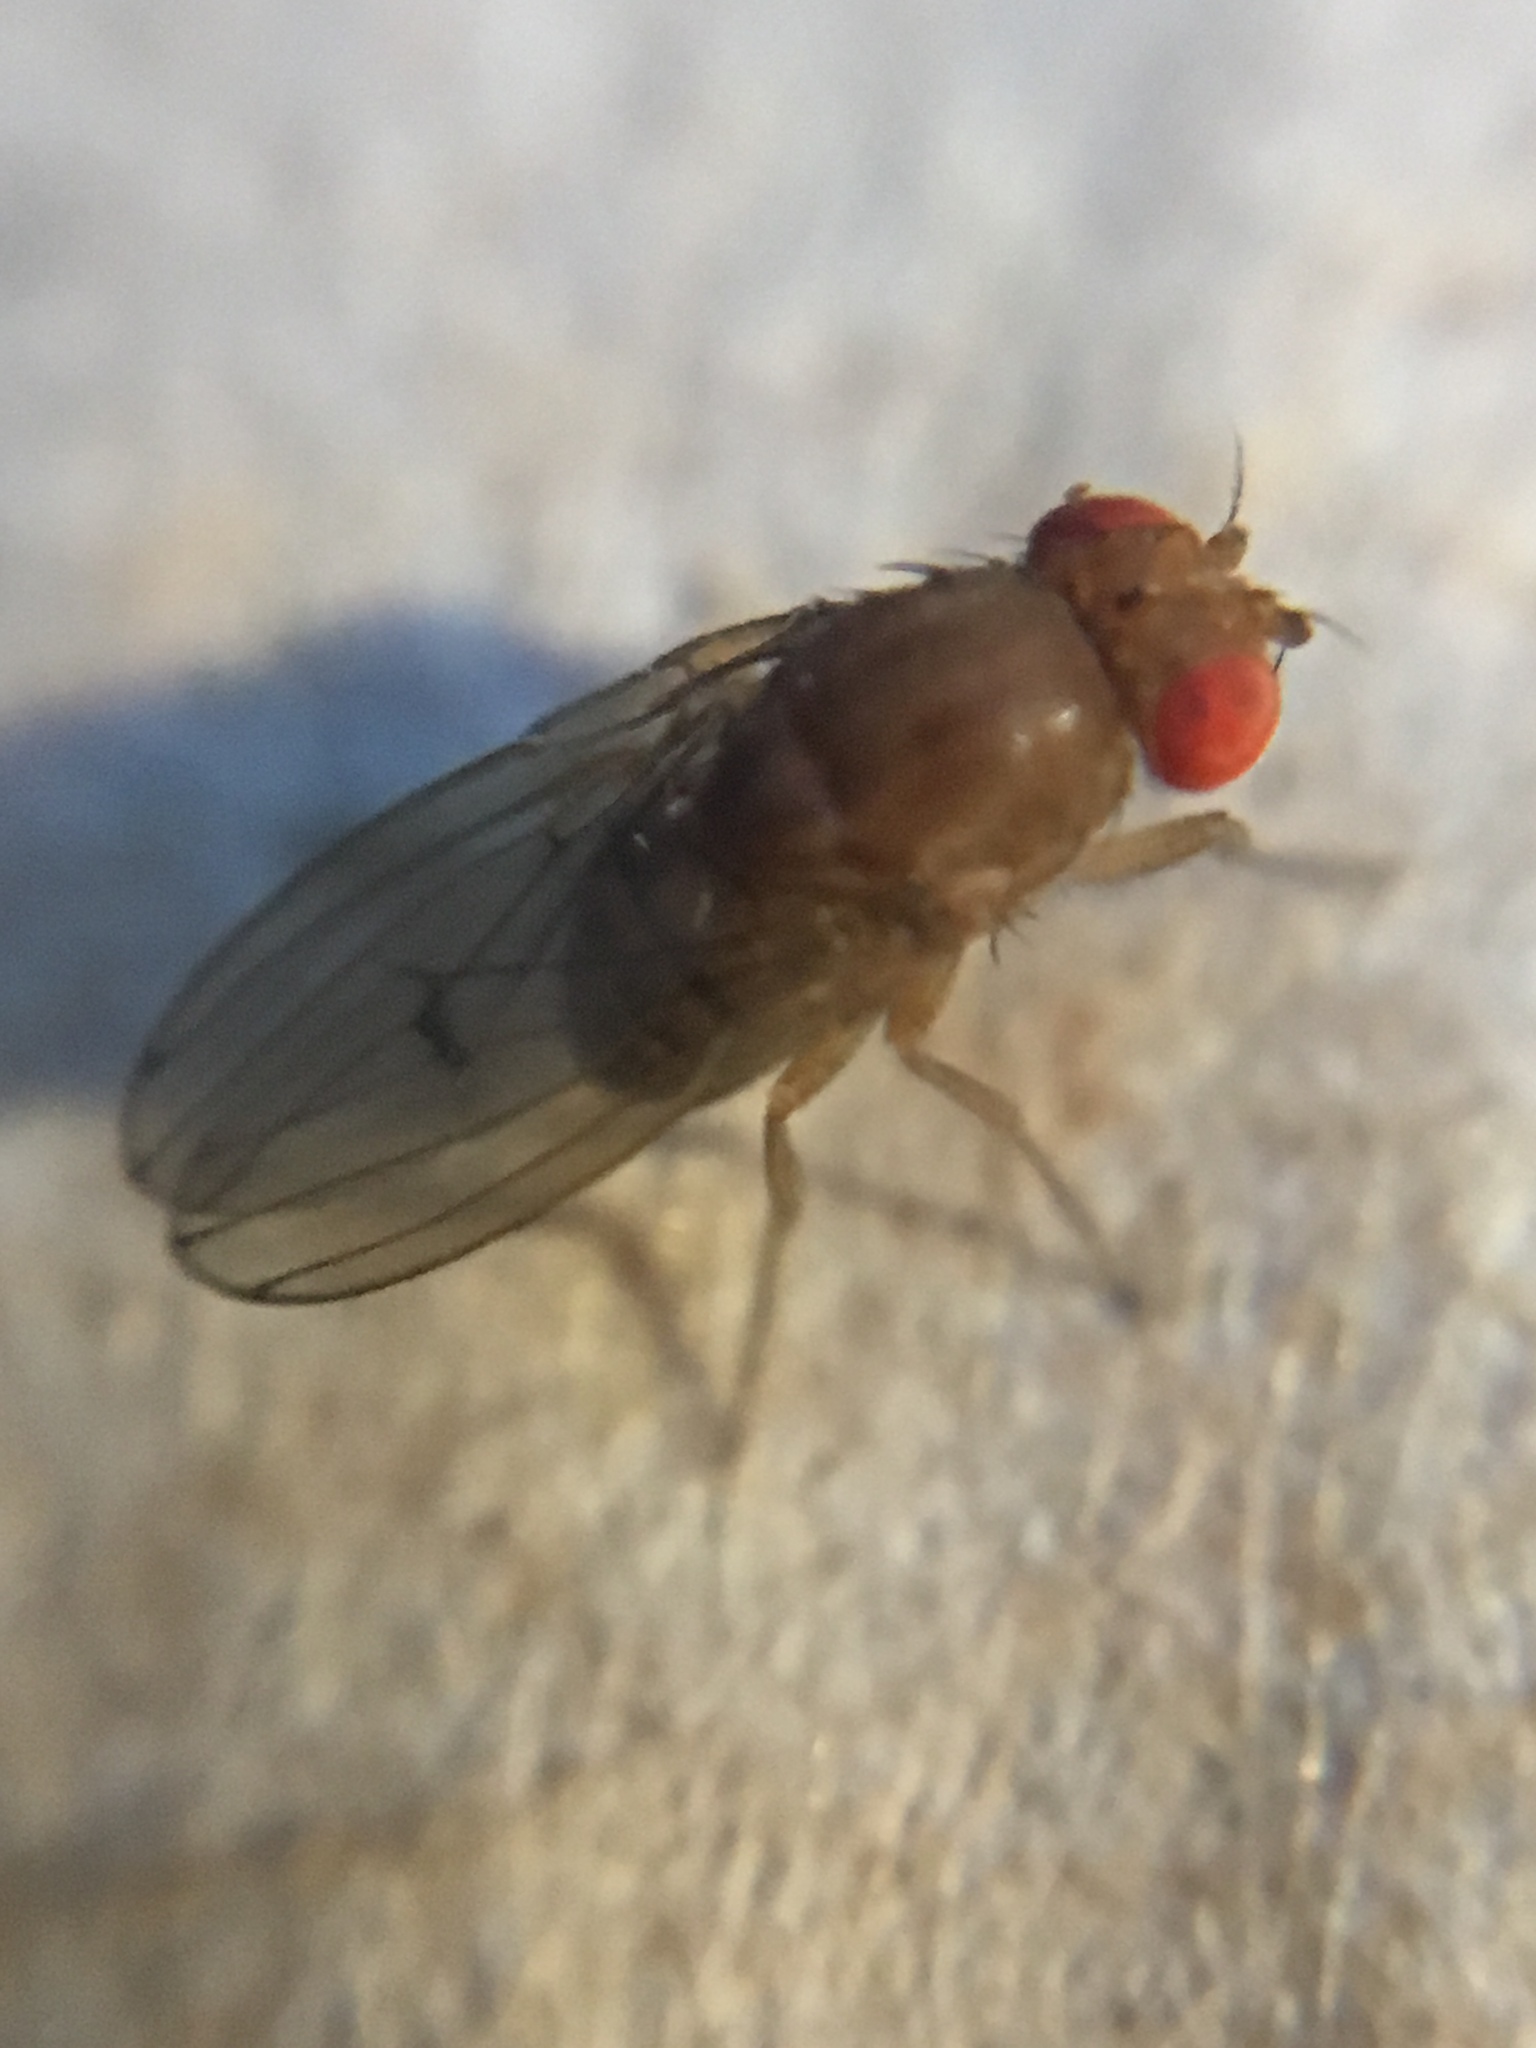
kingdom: Animalia
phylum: Arthropoda
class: Insecta
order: Diptera
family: Drosophilidae
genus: Drosophila
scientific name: Drosophila immigrans
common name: Pomace fly
